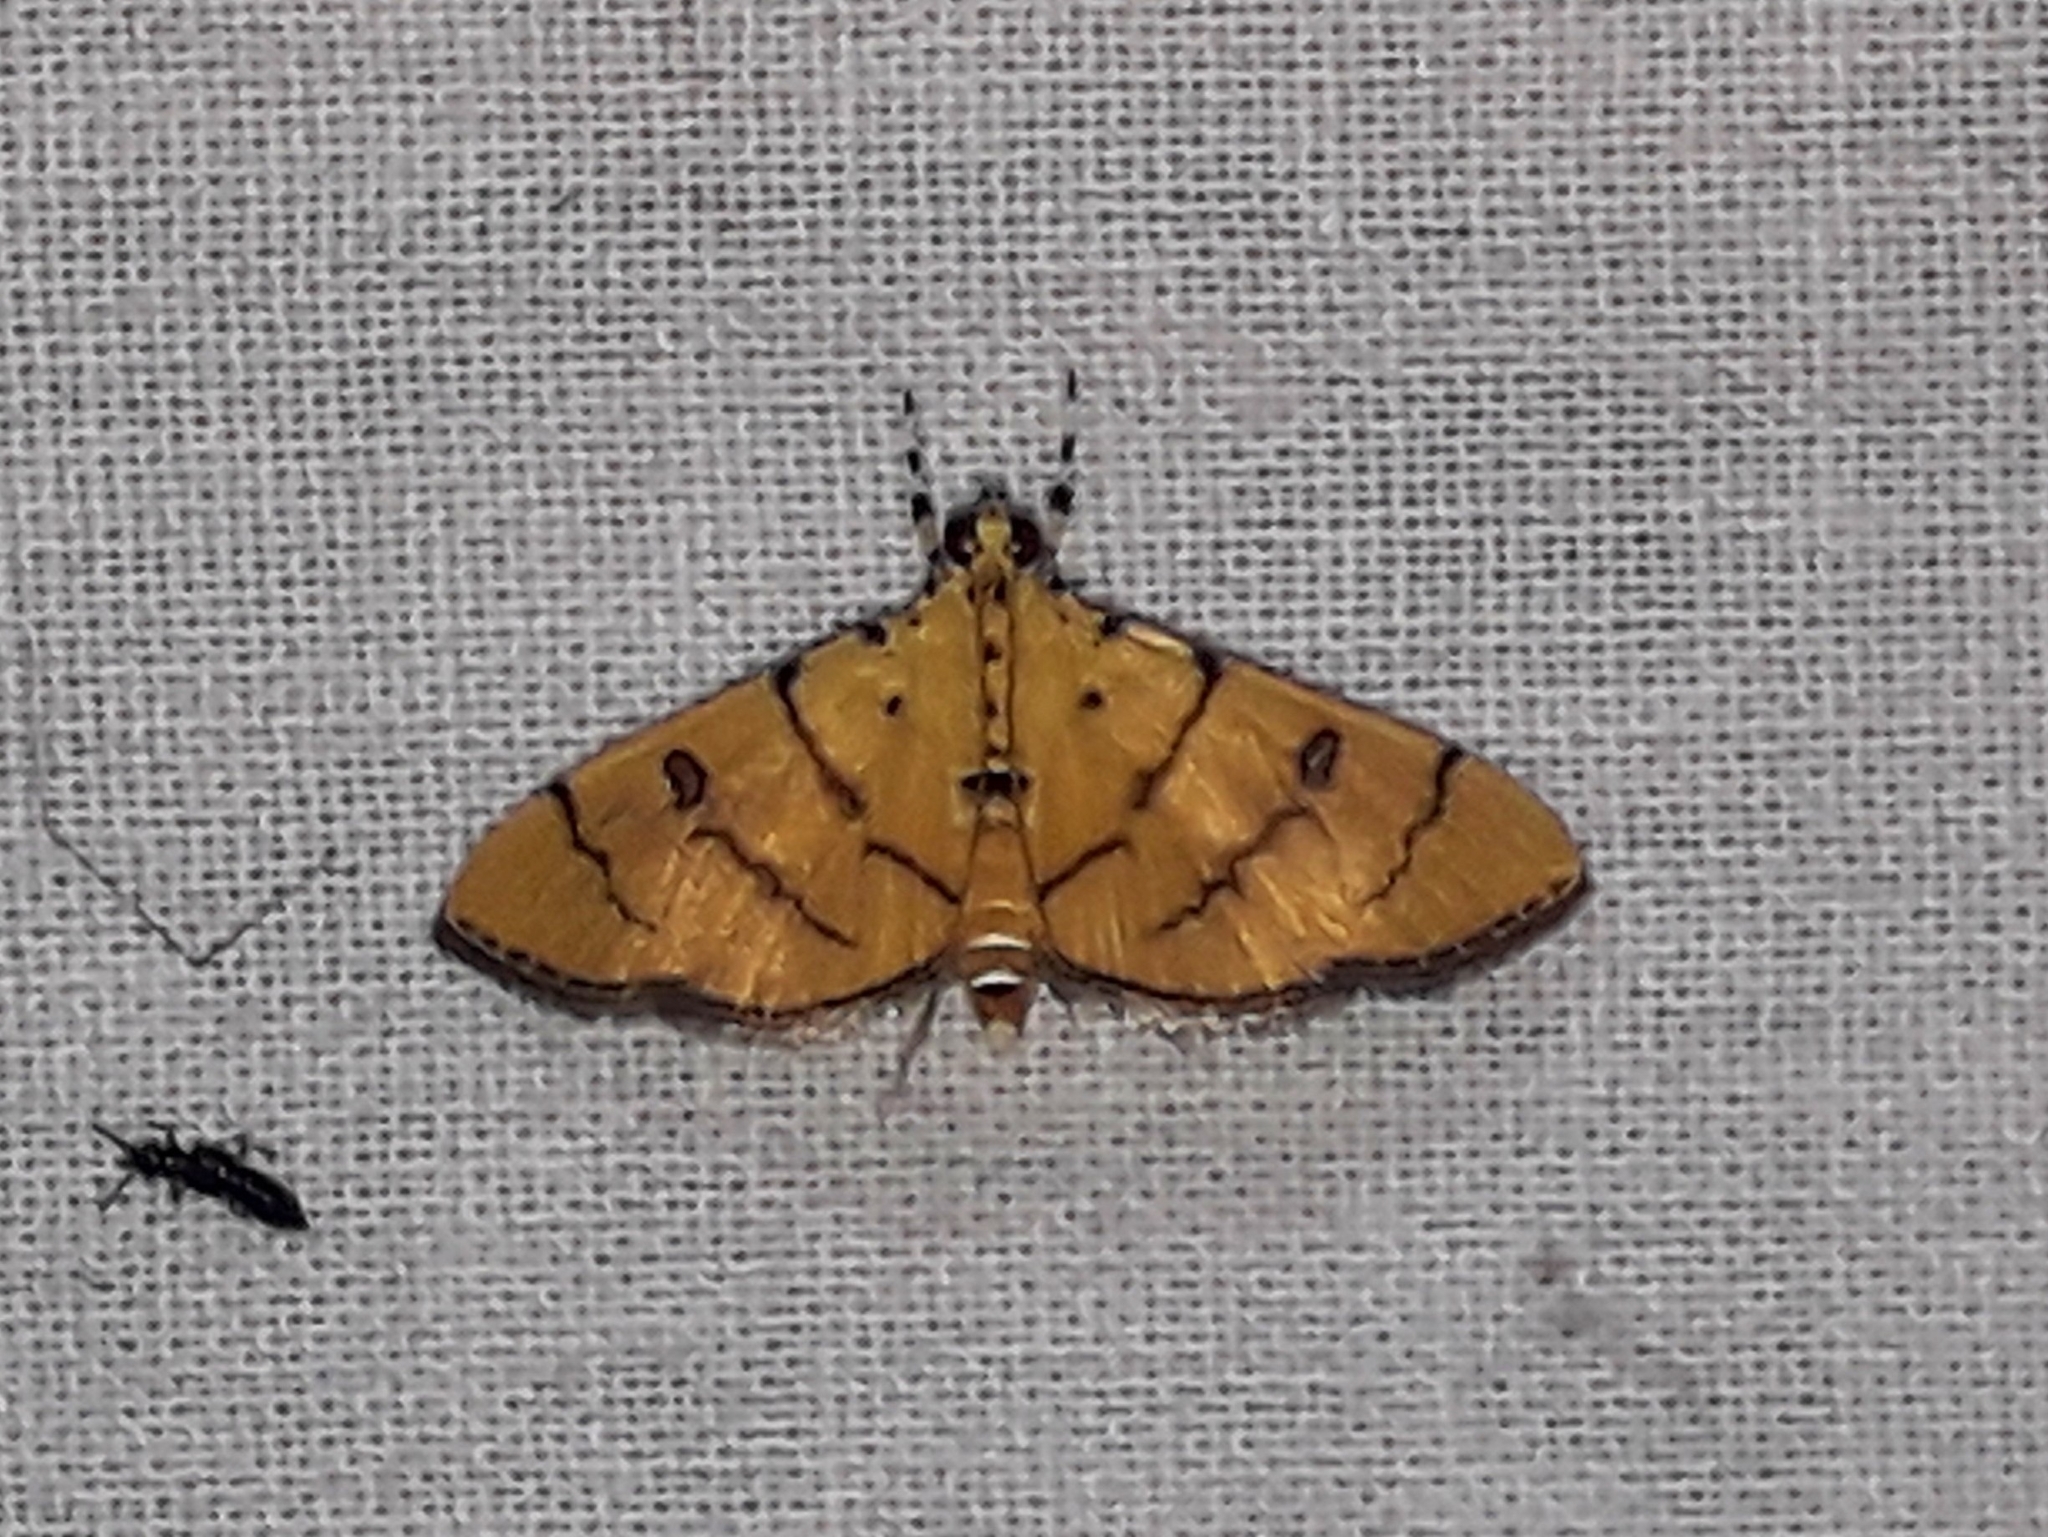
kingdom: Animalia
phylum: Arthropoda
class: Insecta
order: Lepidoptera
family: Crambidae
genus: Lygropia
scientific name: Lygropia cernalis
